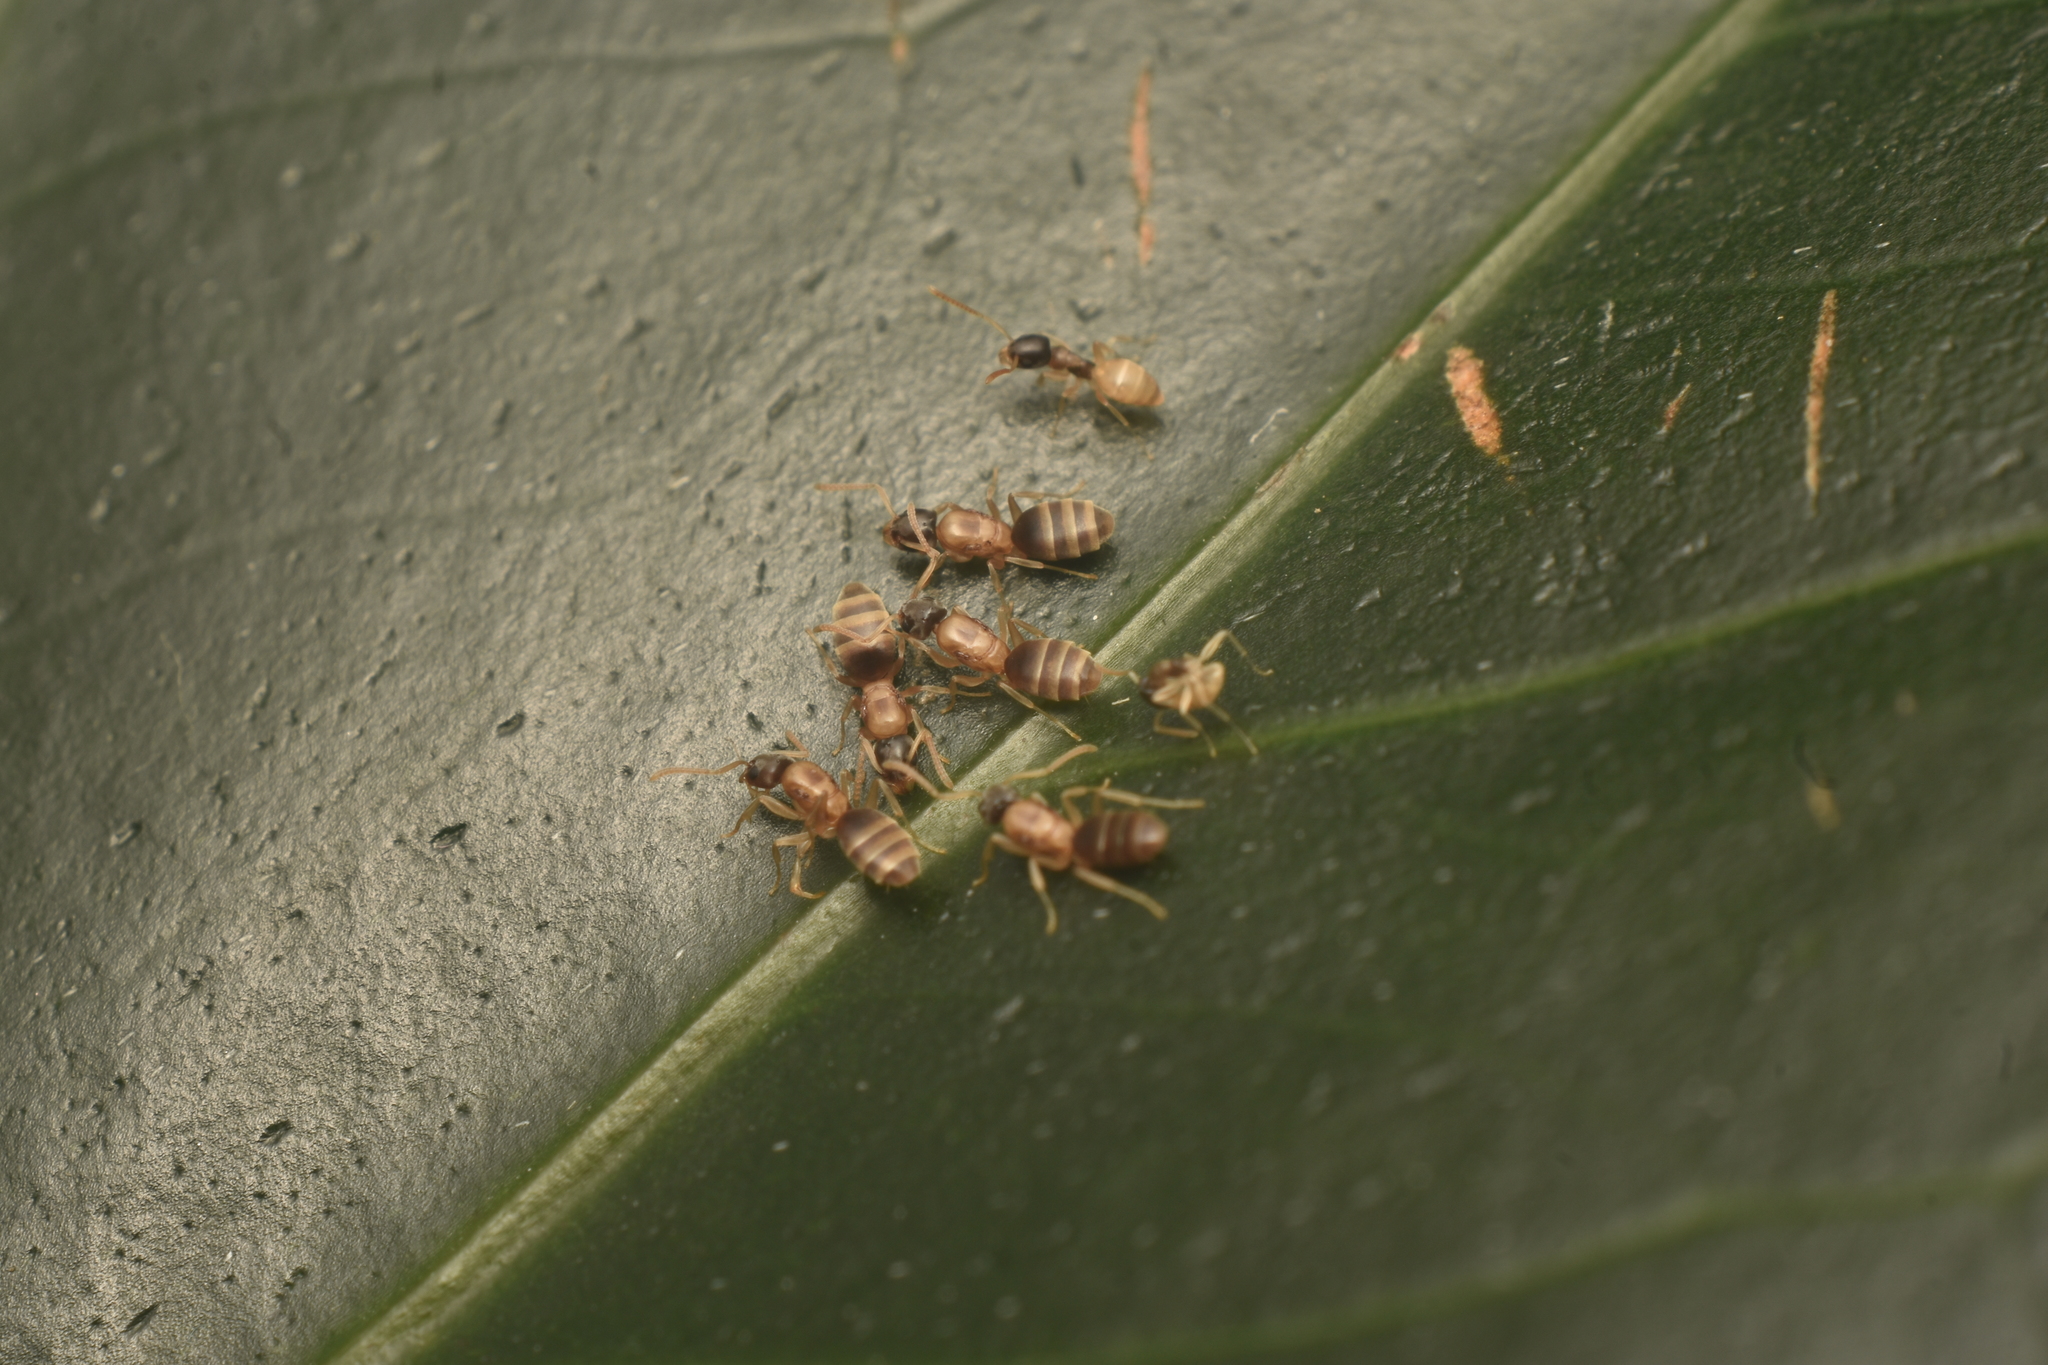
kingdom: Animalia
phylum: Arthropoda
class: Insecta
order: Hymenoptera
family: Formicidae
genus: Tapinoma
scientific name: Tapinoma melanocephalum
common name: Ghost ant
